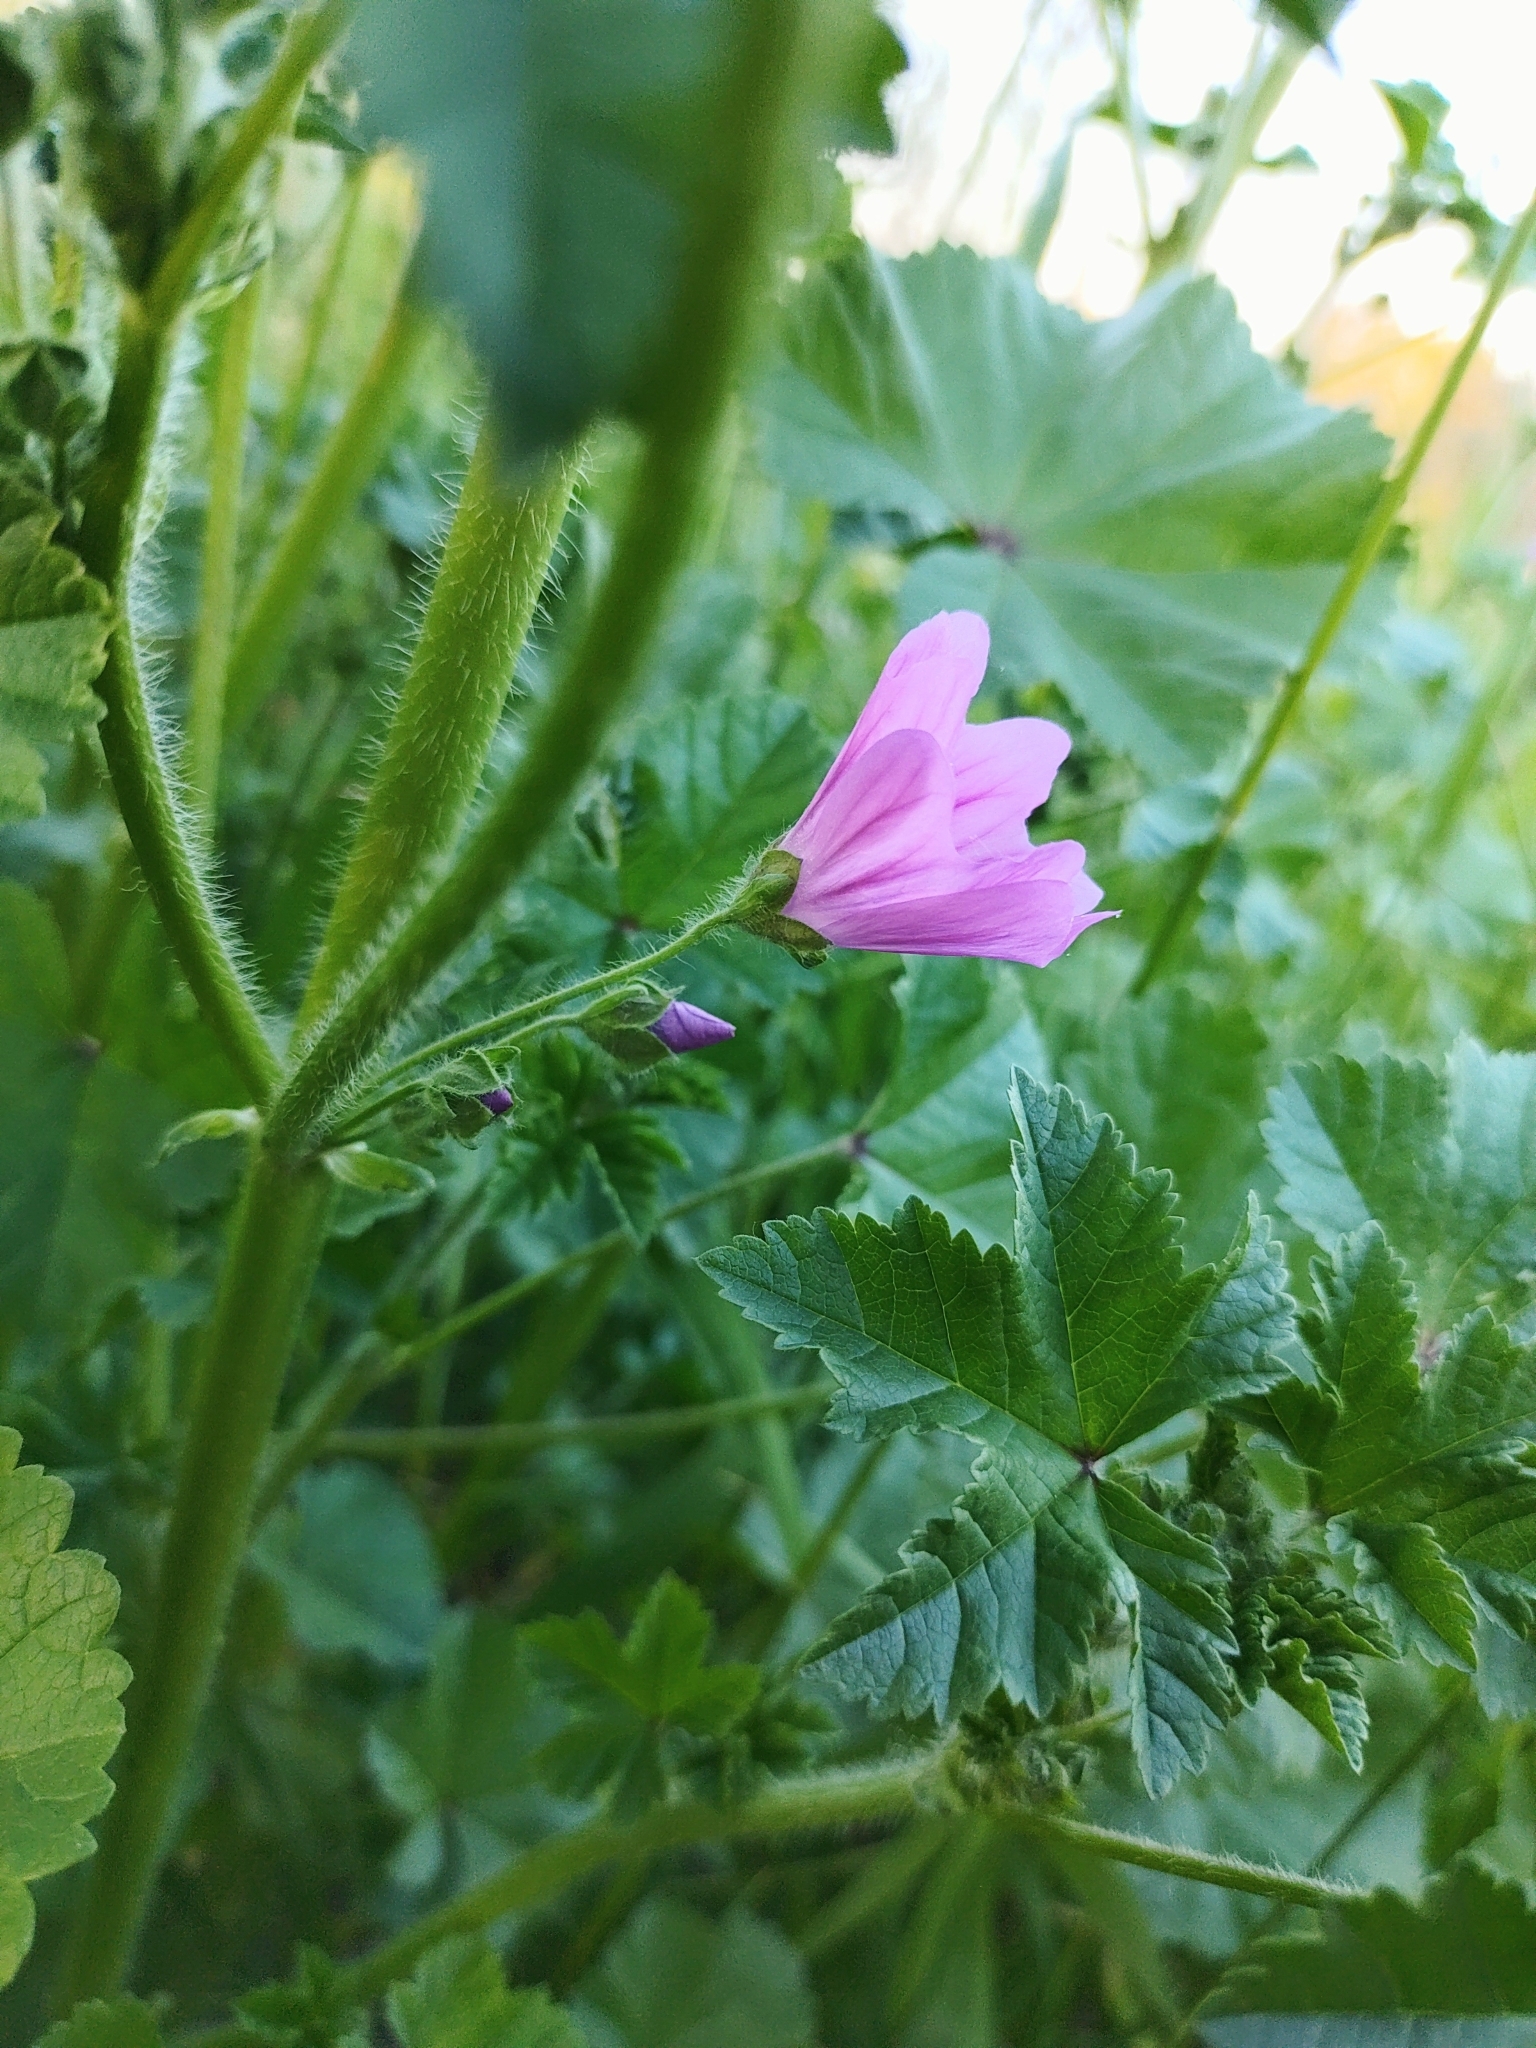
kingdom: Plantae
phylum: Tracheophyta
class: Magnoliopsida
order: Malvales
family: Malvaceae
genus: Malva
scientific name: Malva sylvestris
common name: Common mallow
